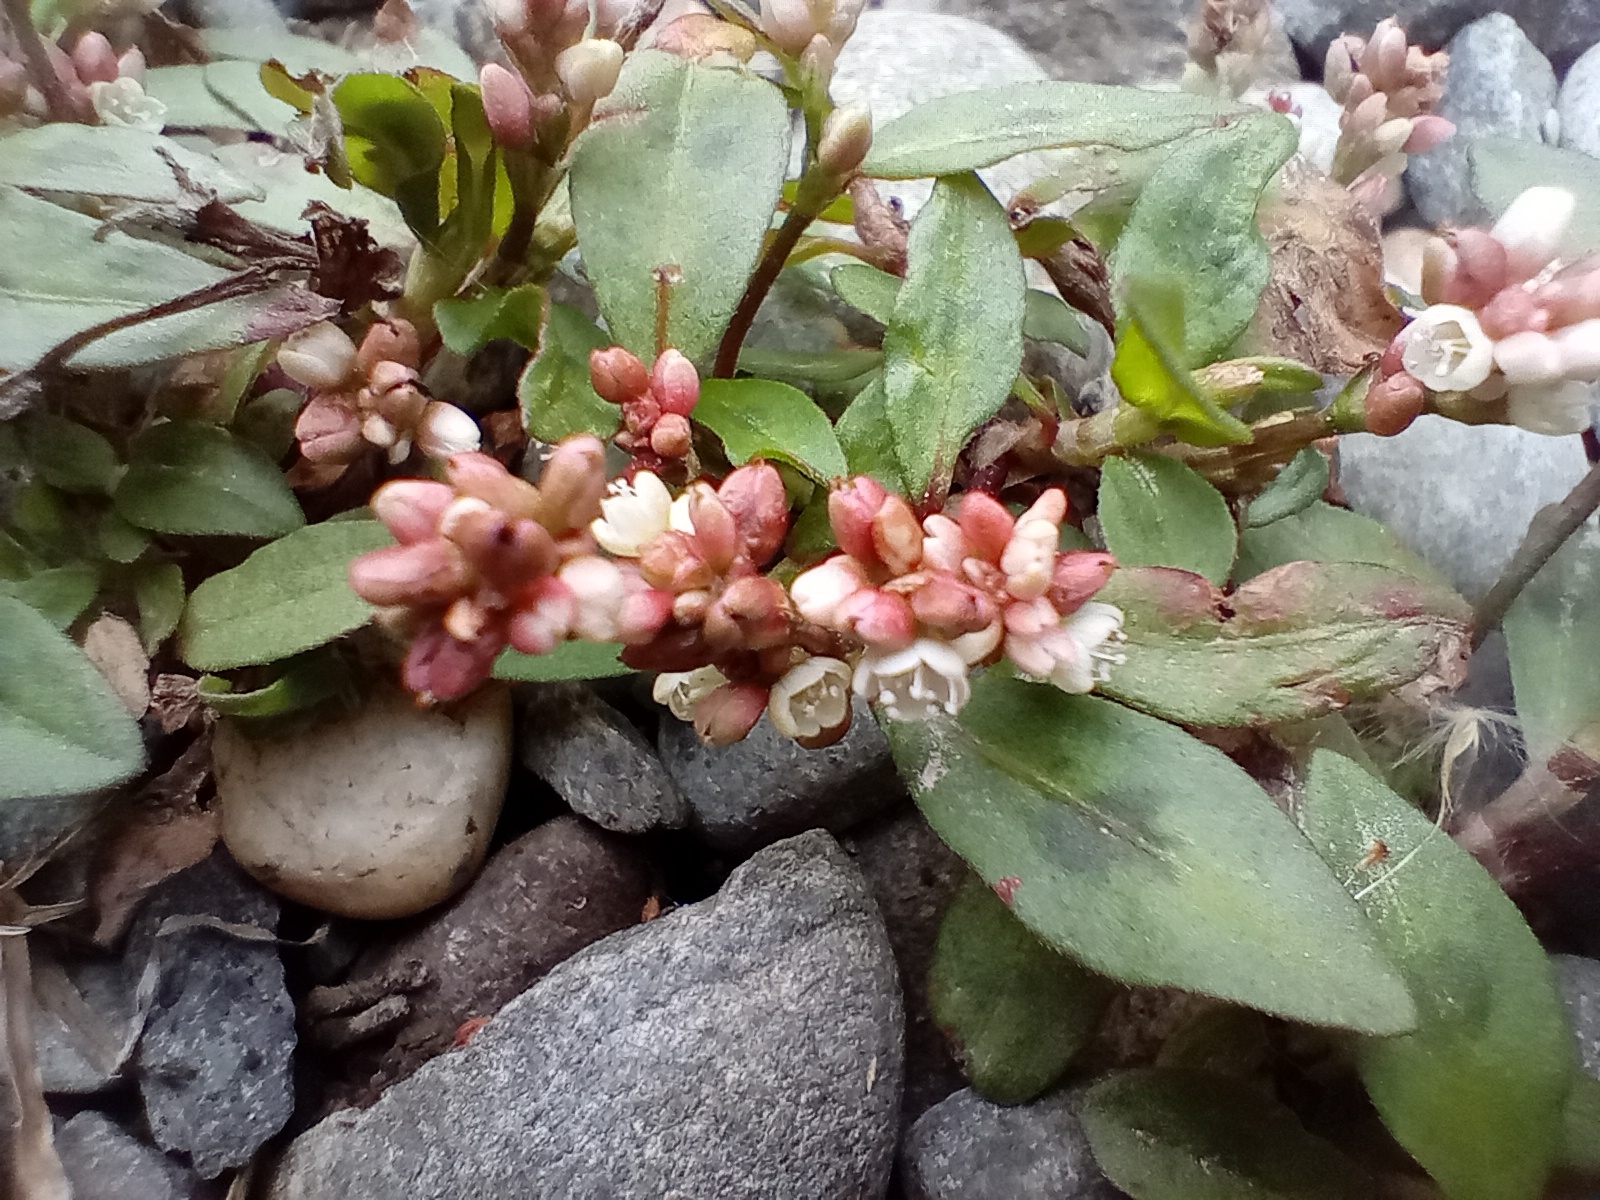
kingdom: Plantae
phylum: Tracheophyta
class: Magnoliopsida
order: Caryophyllales
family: Polygonaceae
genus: Persicaria
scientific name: Persicaria maculosa
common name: Redshank
